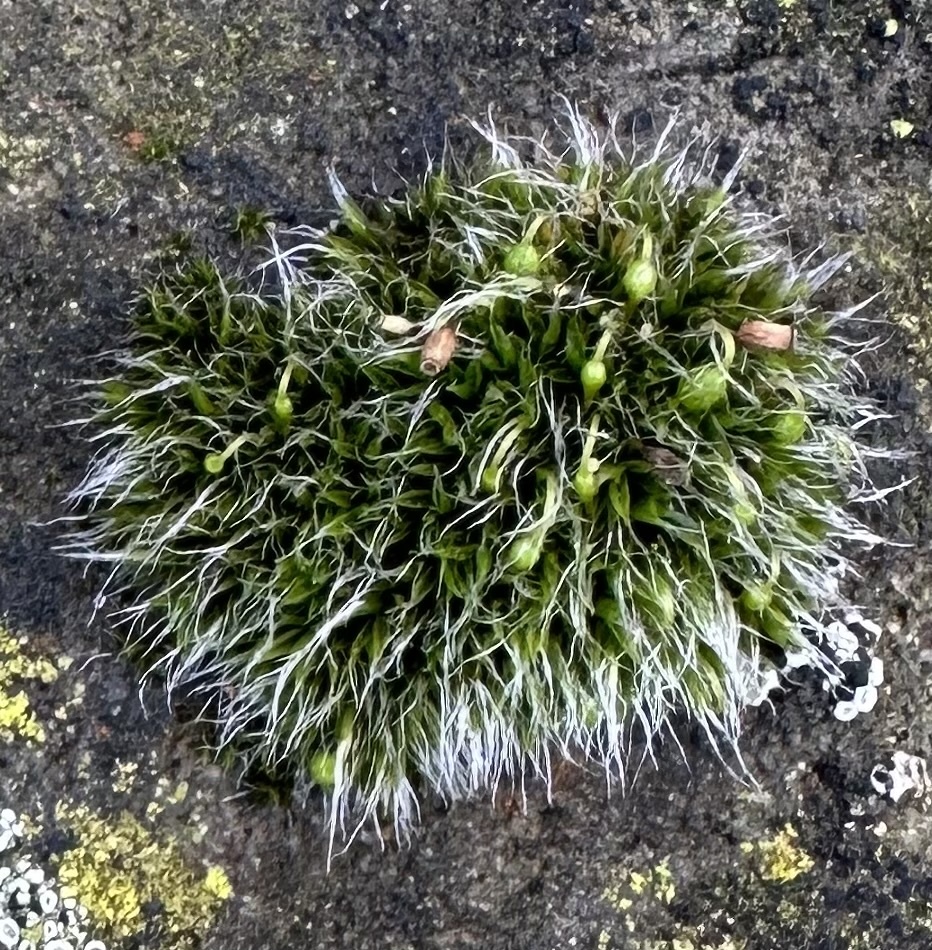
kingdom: Plantae
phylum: Bryophyta
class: Bryopsida
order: Grimmiales
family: Grimmiaceae
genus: Grimmia
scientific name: Grimmia pulvinata
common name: Grey-cushioned grimmia
